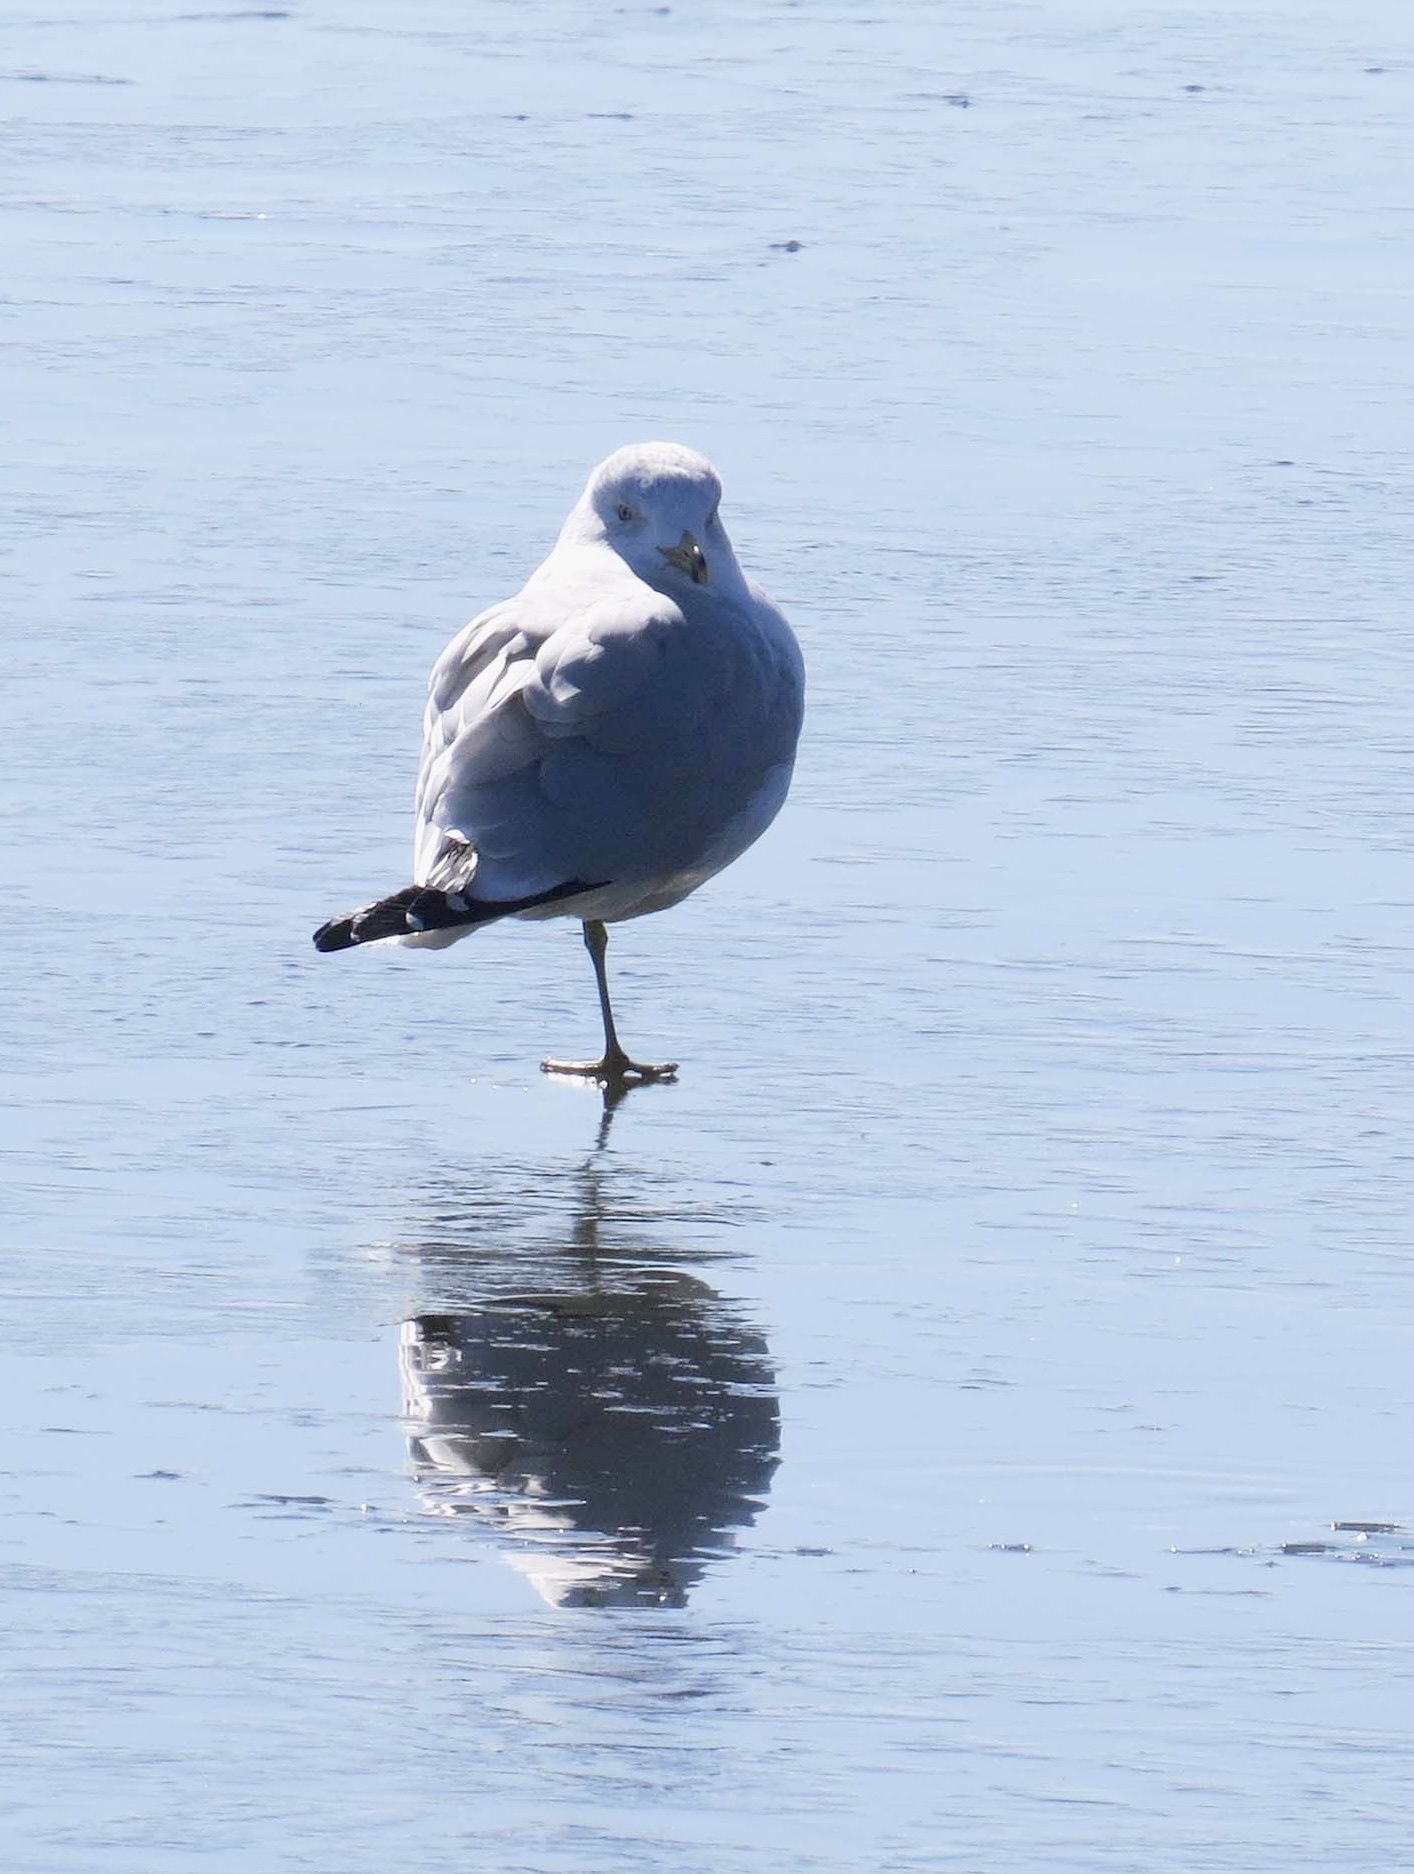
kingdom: Animalia
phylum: Chordata
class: Aves
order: Charadriiformes
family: Laridae
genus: Larus
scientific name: Larus delawarensis
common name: Ring-billed gull
